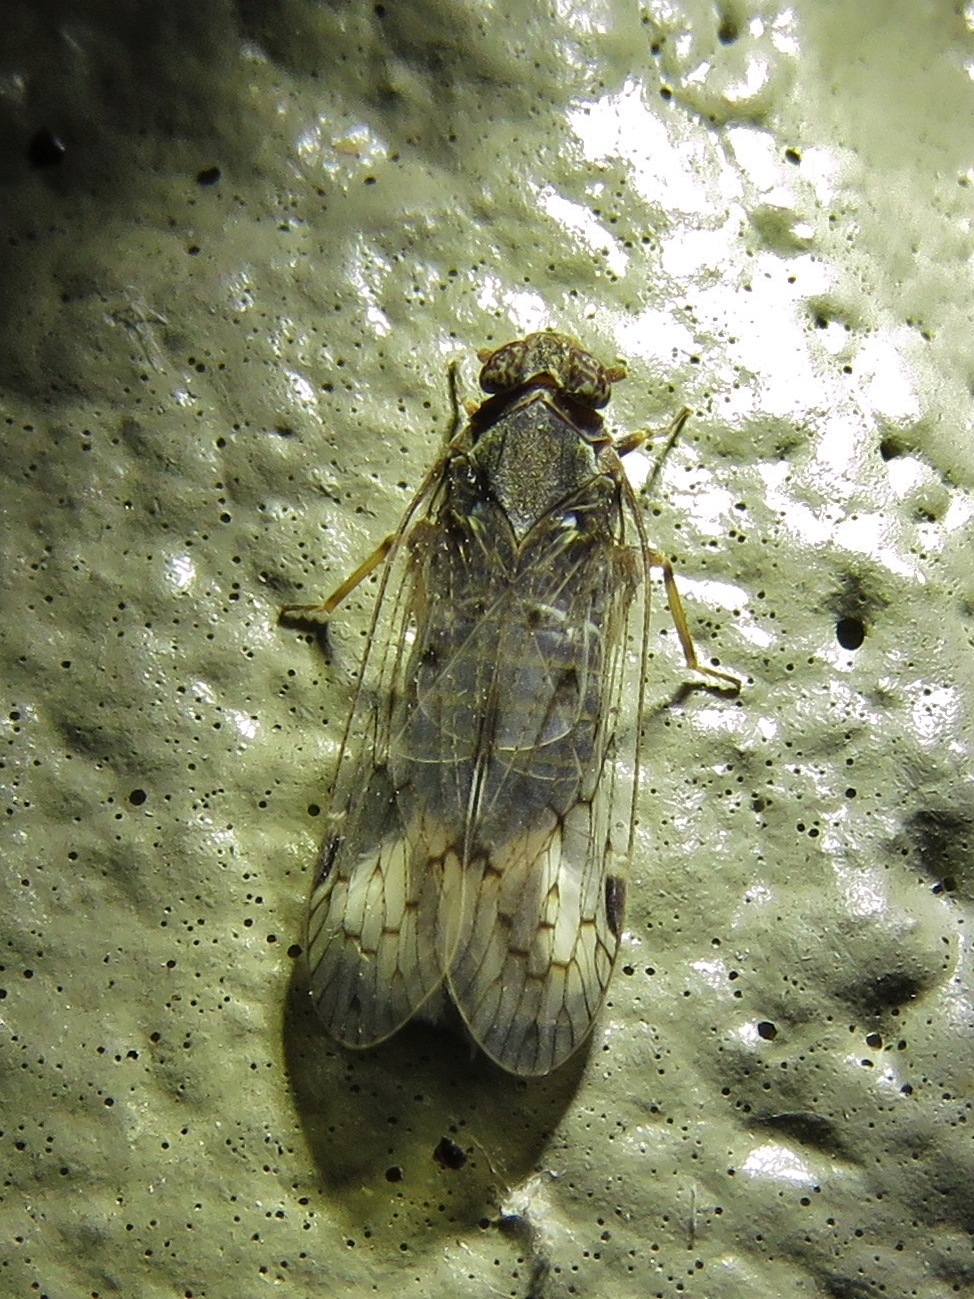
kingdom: Animalia
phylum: Arthropoda
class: Insecta
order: Hemiptera
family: Cixiidae
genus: Melanoliarus
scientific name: Melanoliarus aridus
